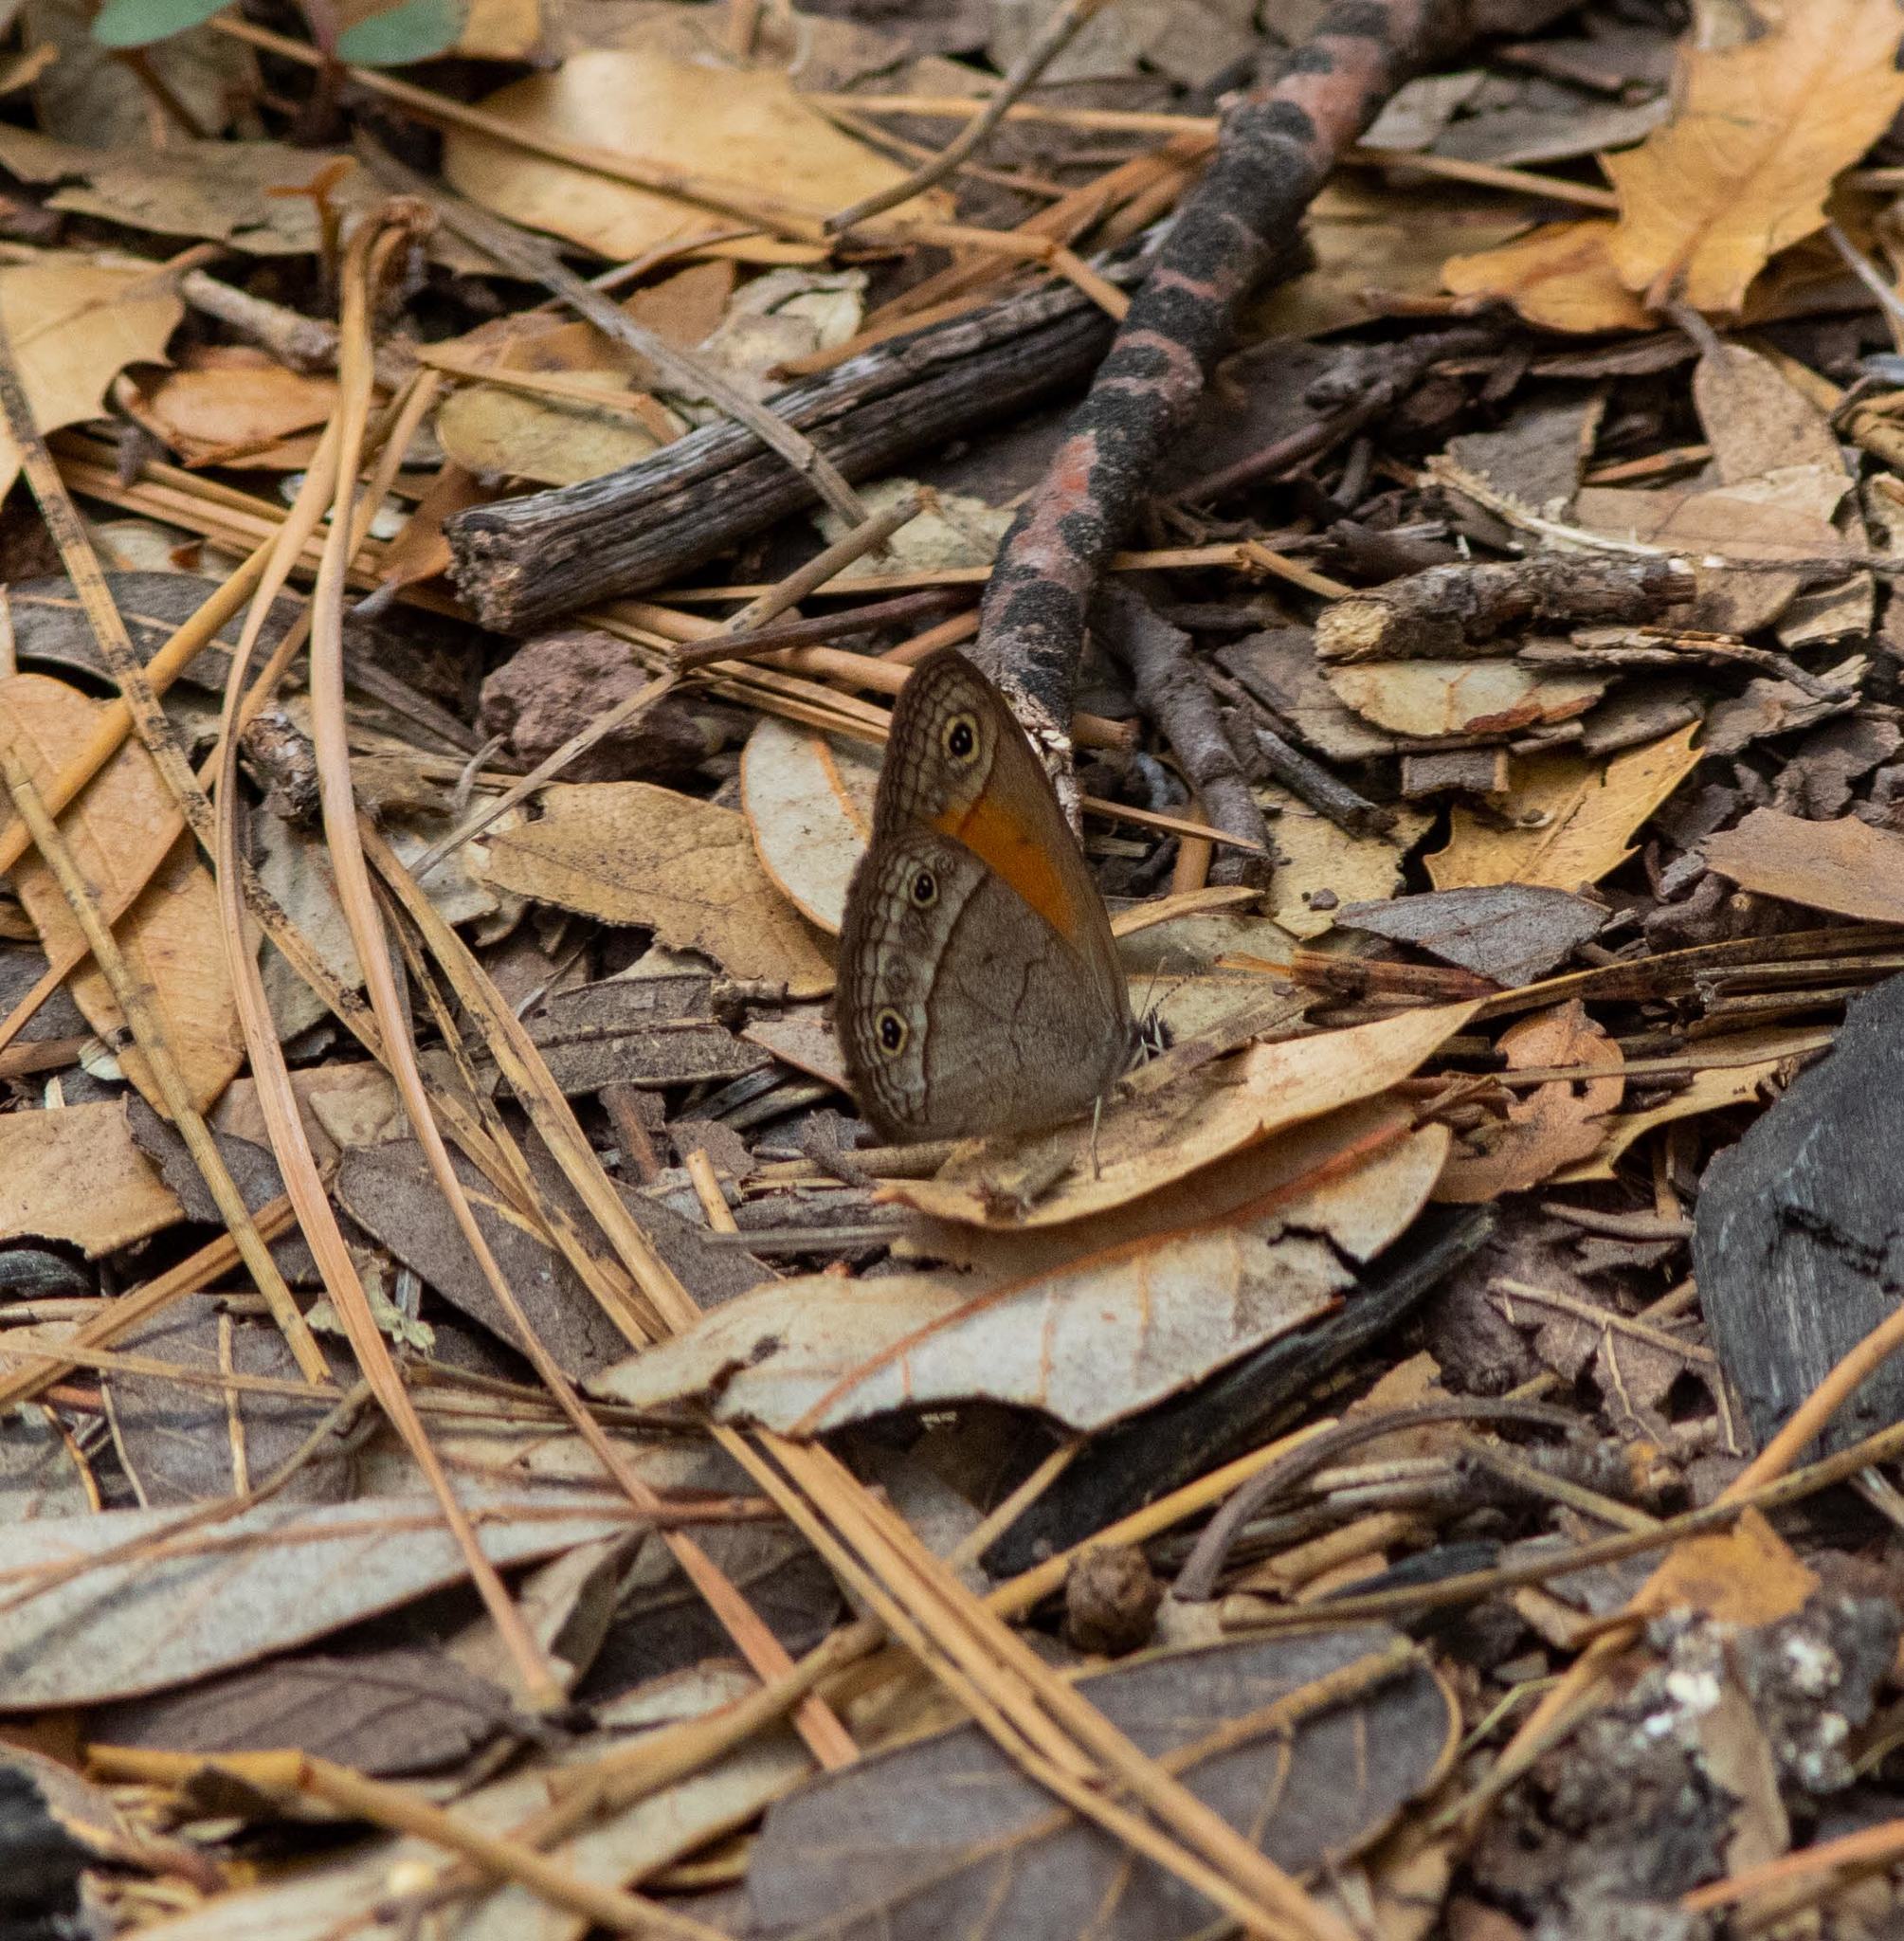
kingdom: Animalia
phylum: Arthropoda
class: Insecta
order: Lepidoptera
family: Nymphalidae
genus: Euptychia
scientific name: Euptychia Cissia rubricata
